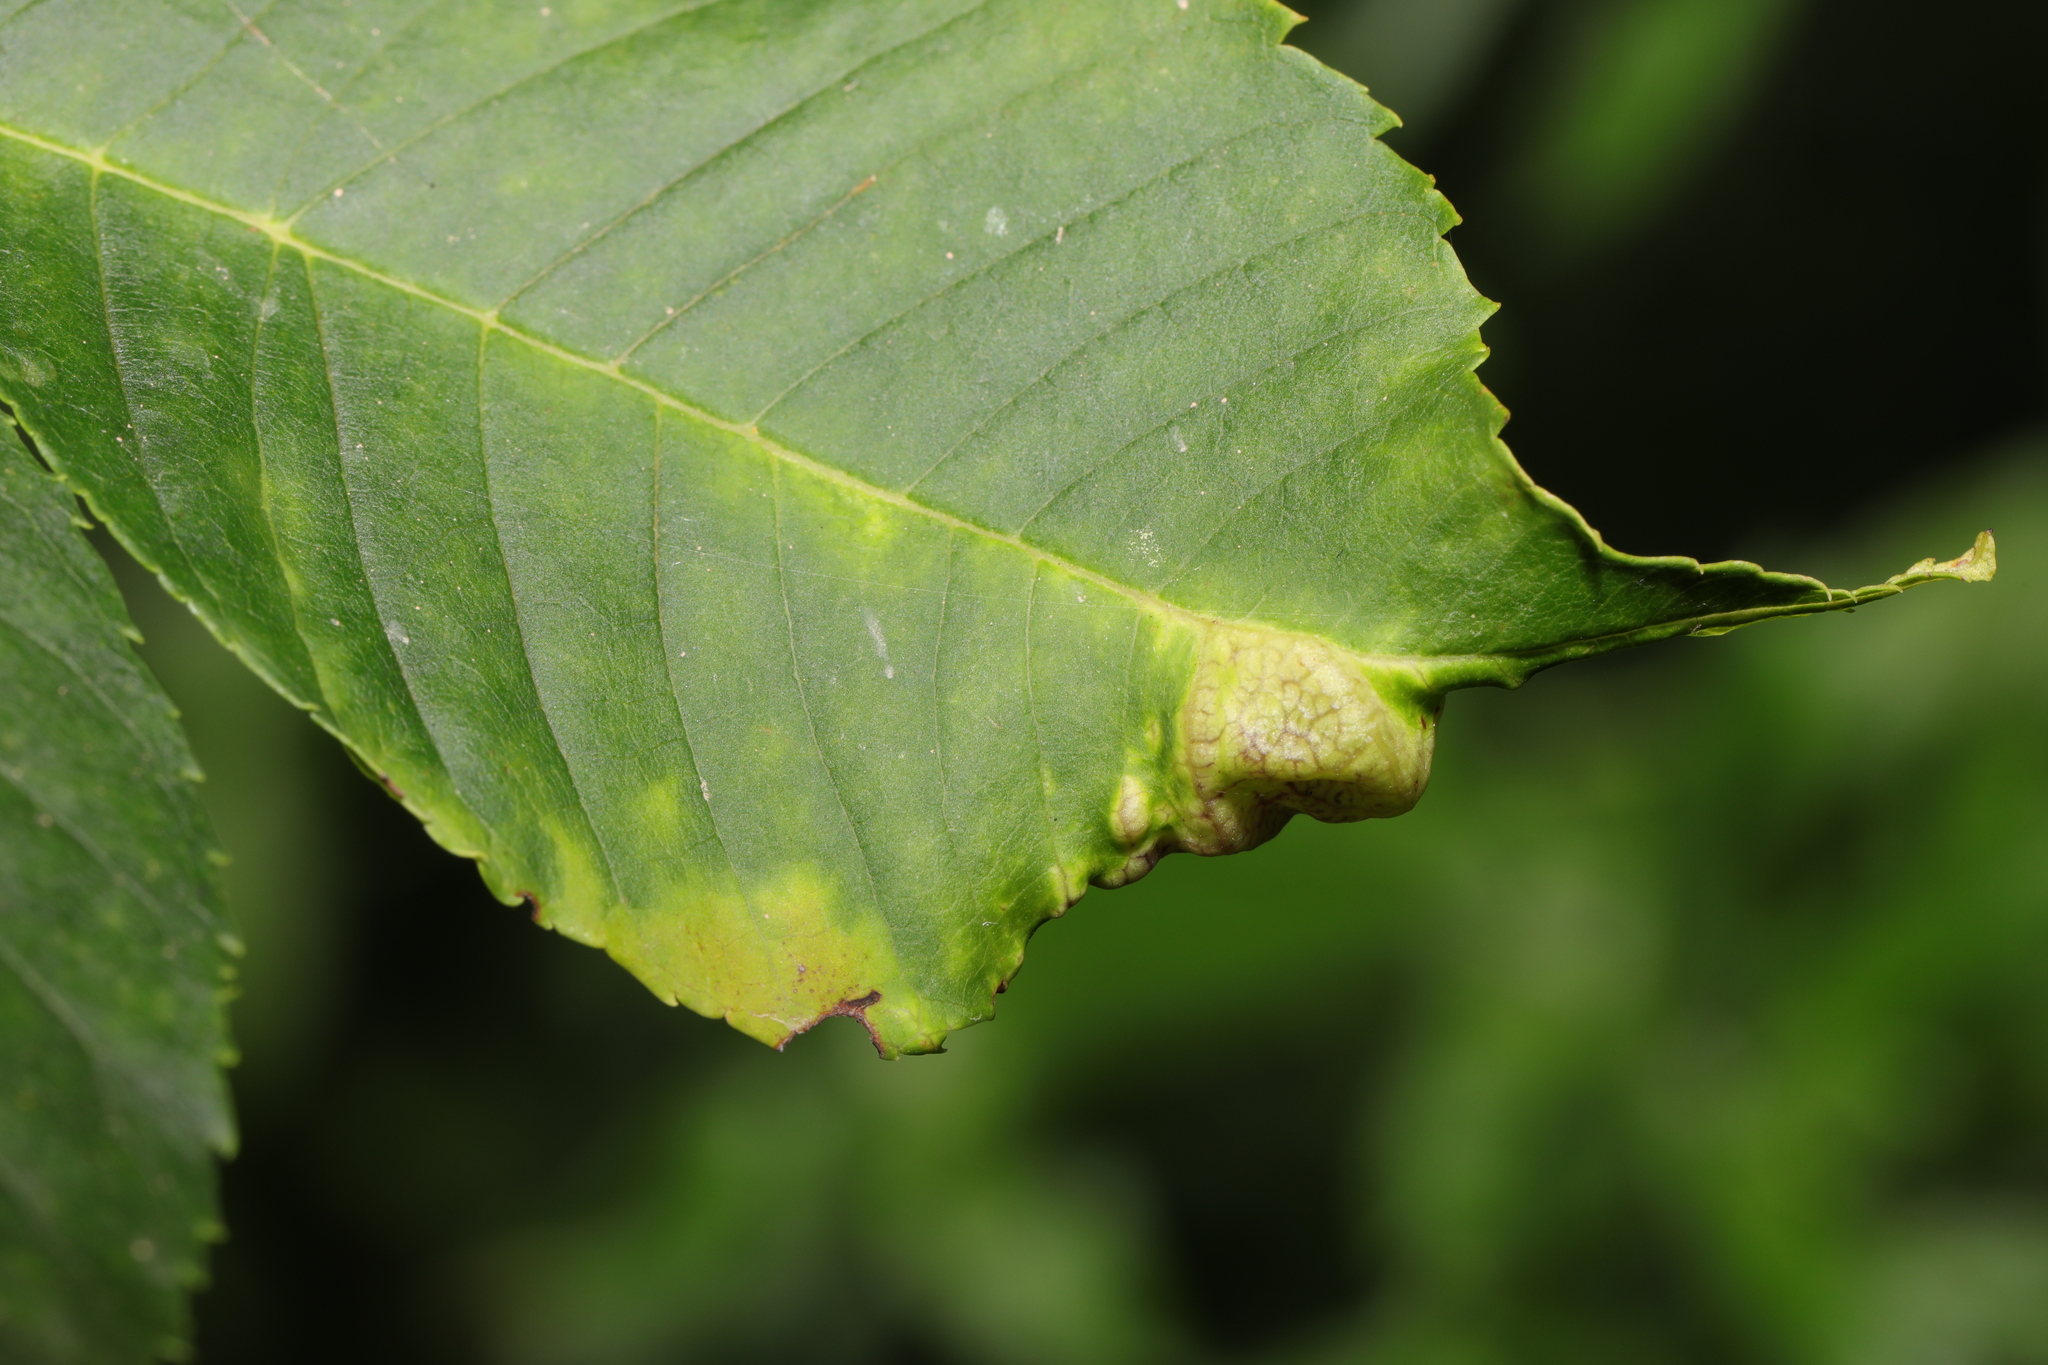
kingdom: Animalia
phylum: Arthropoda
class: Insecta
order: Hemiptera
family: Liviidae
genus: Psyllopsis
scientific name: Psyllopsis fraxini
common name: Jumping plant louse
